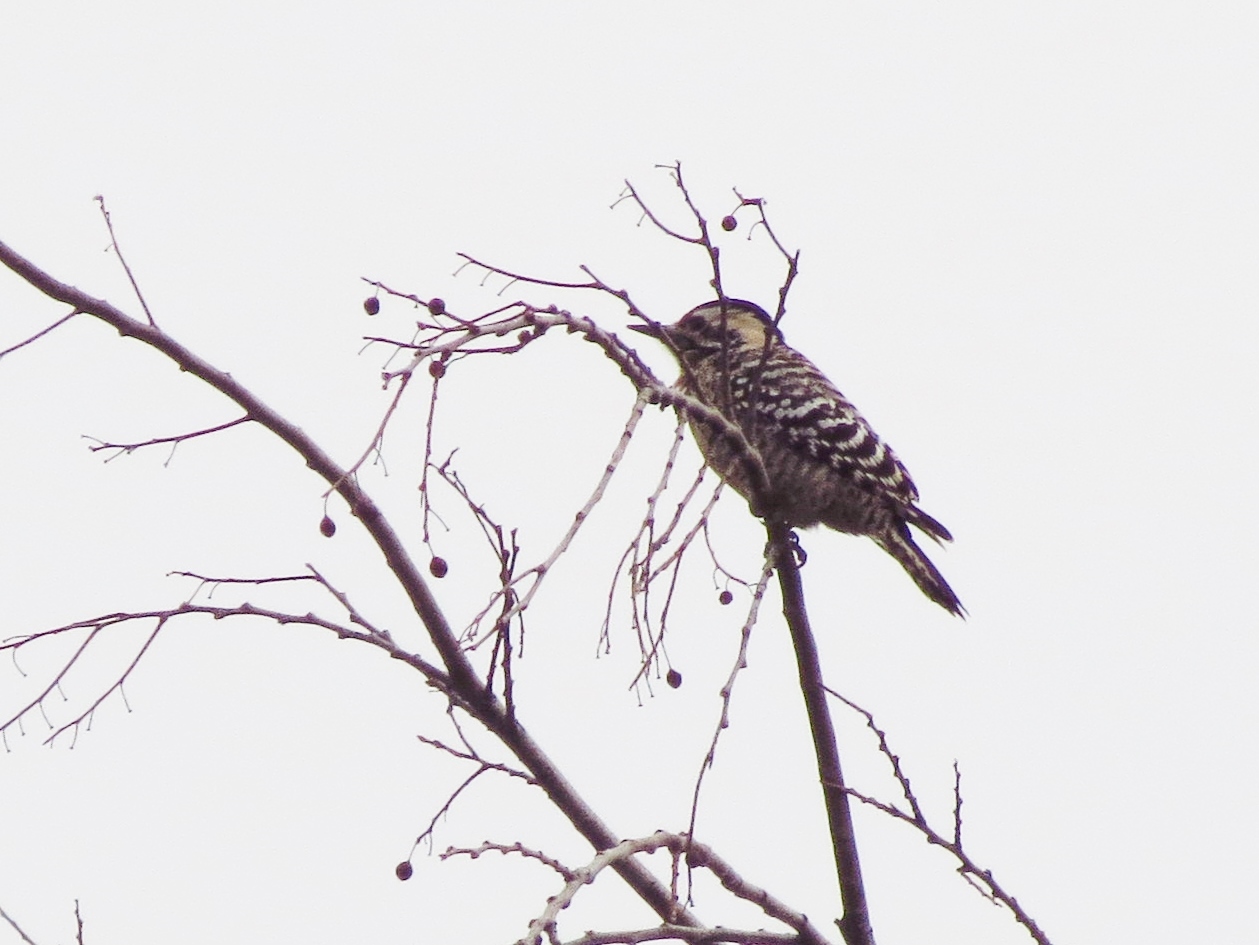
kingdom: Animalia
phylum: Chordata
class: Aves
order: Piciformes
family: Picidae
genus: Dryobates
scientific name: Dryobates scalaris
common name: Ladder-backed woodpecker
